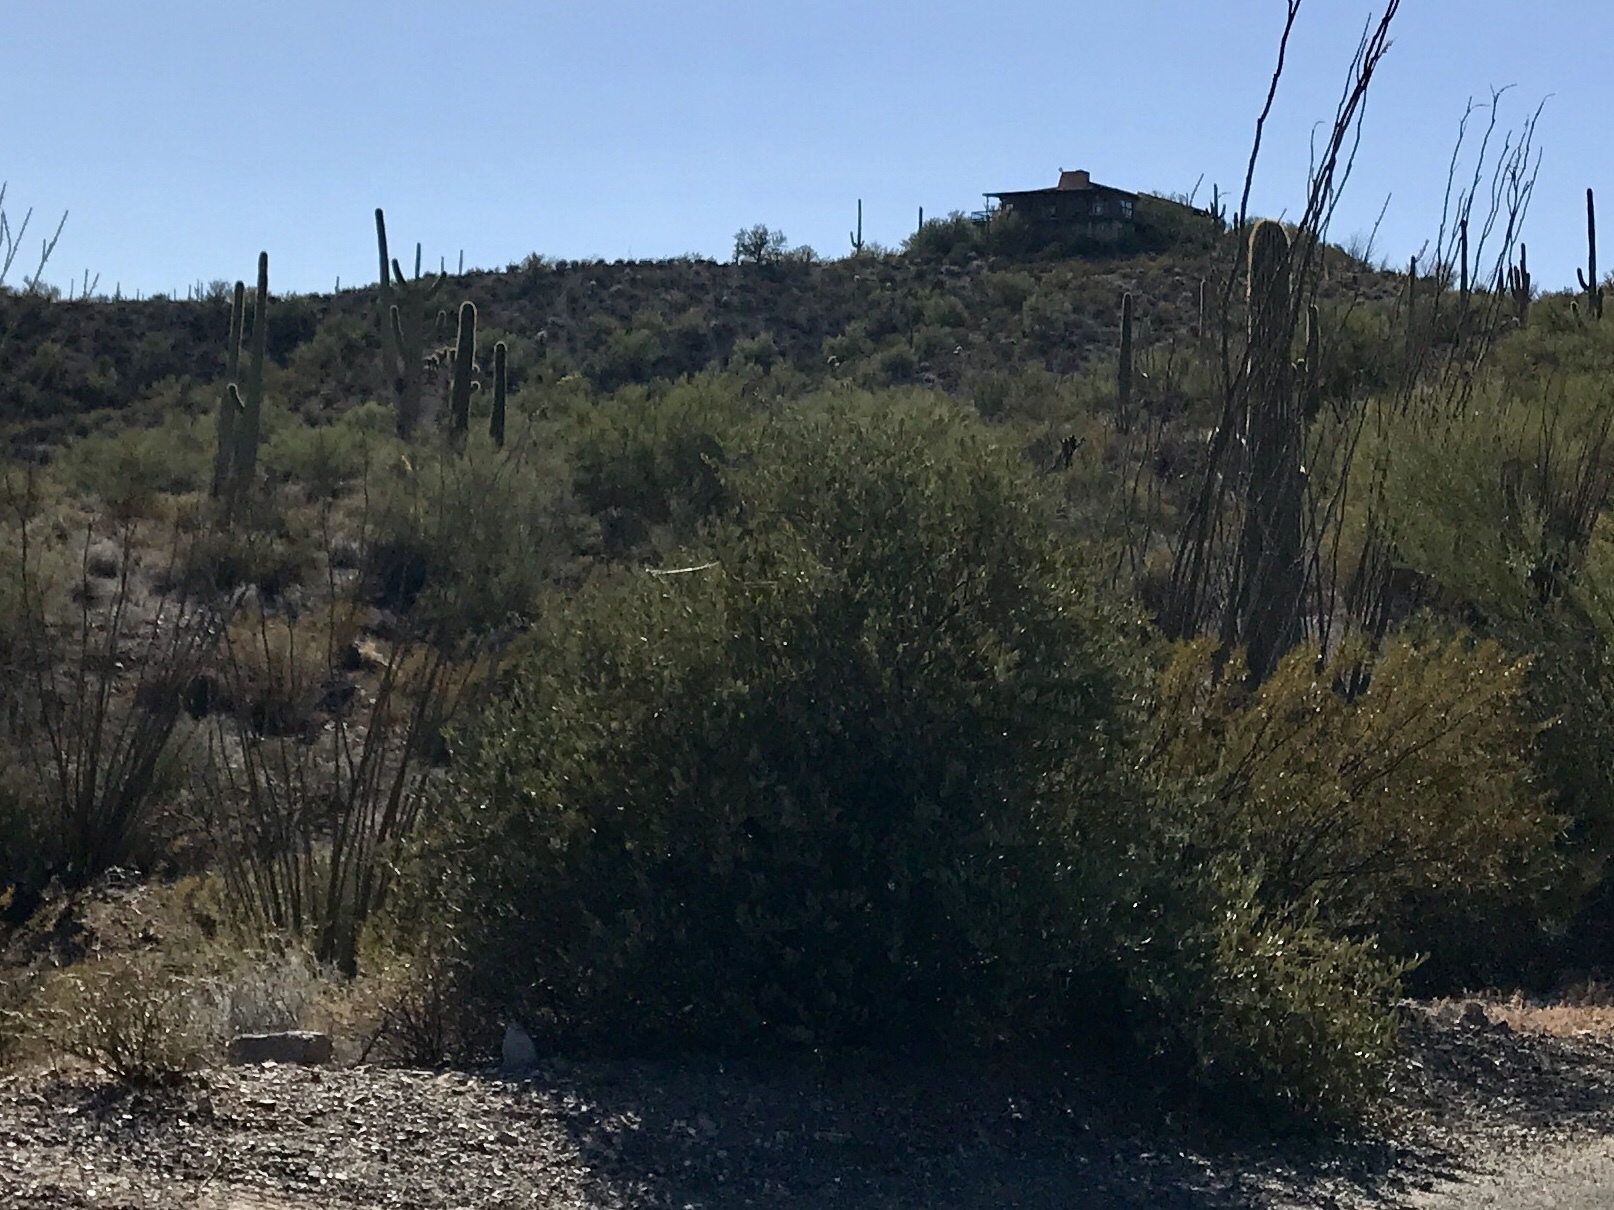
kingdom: Plantae
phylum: Tracheophyta
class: Magnoliopsida
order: Caryophyllales
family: Simmondsiaceae
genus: Simmondsia
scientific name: Simmondsia chinensis
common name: Jojoba
